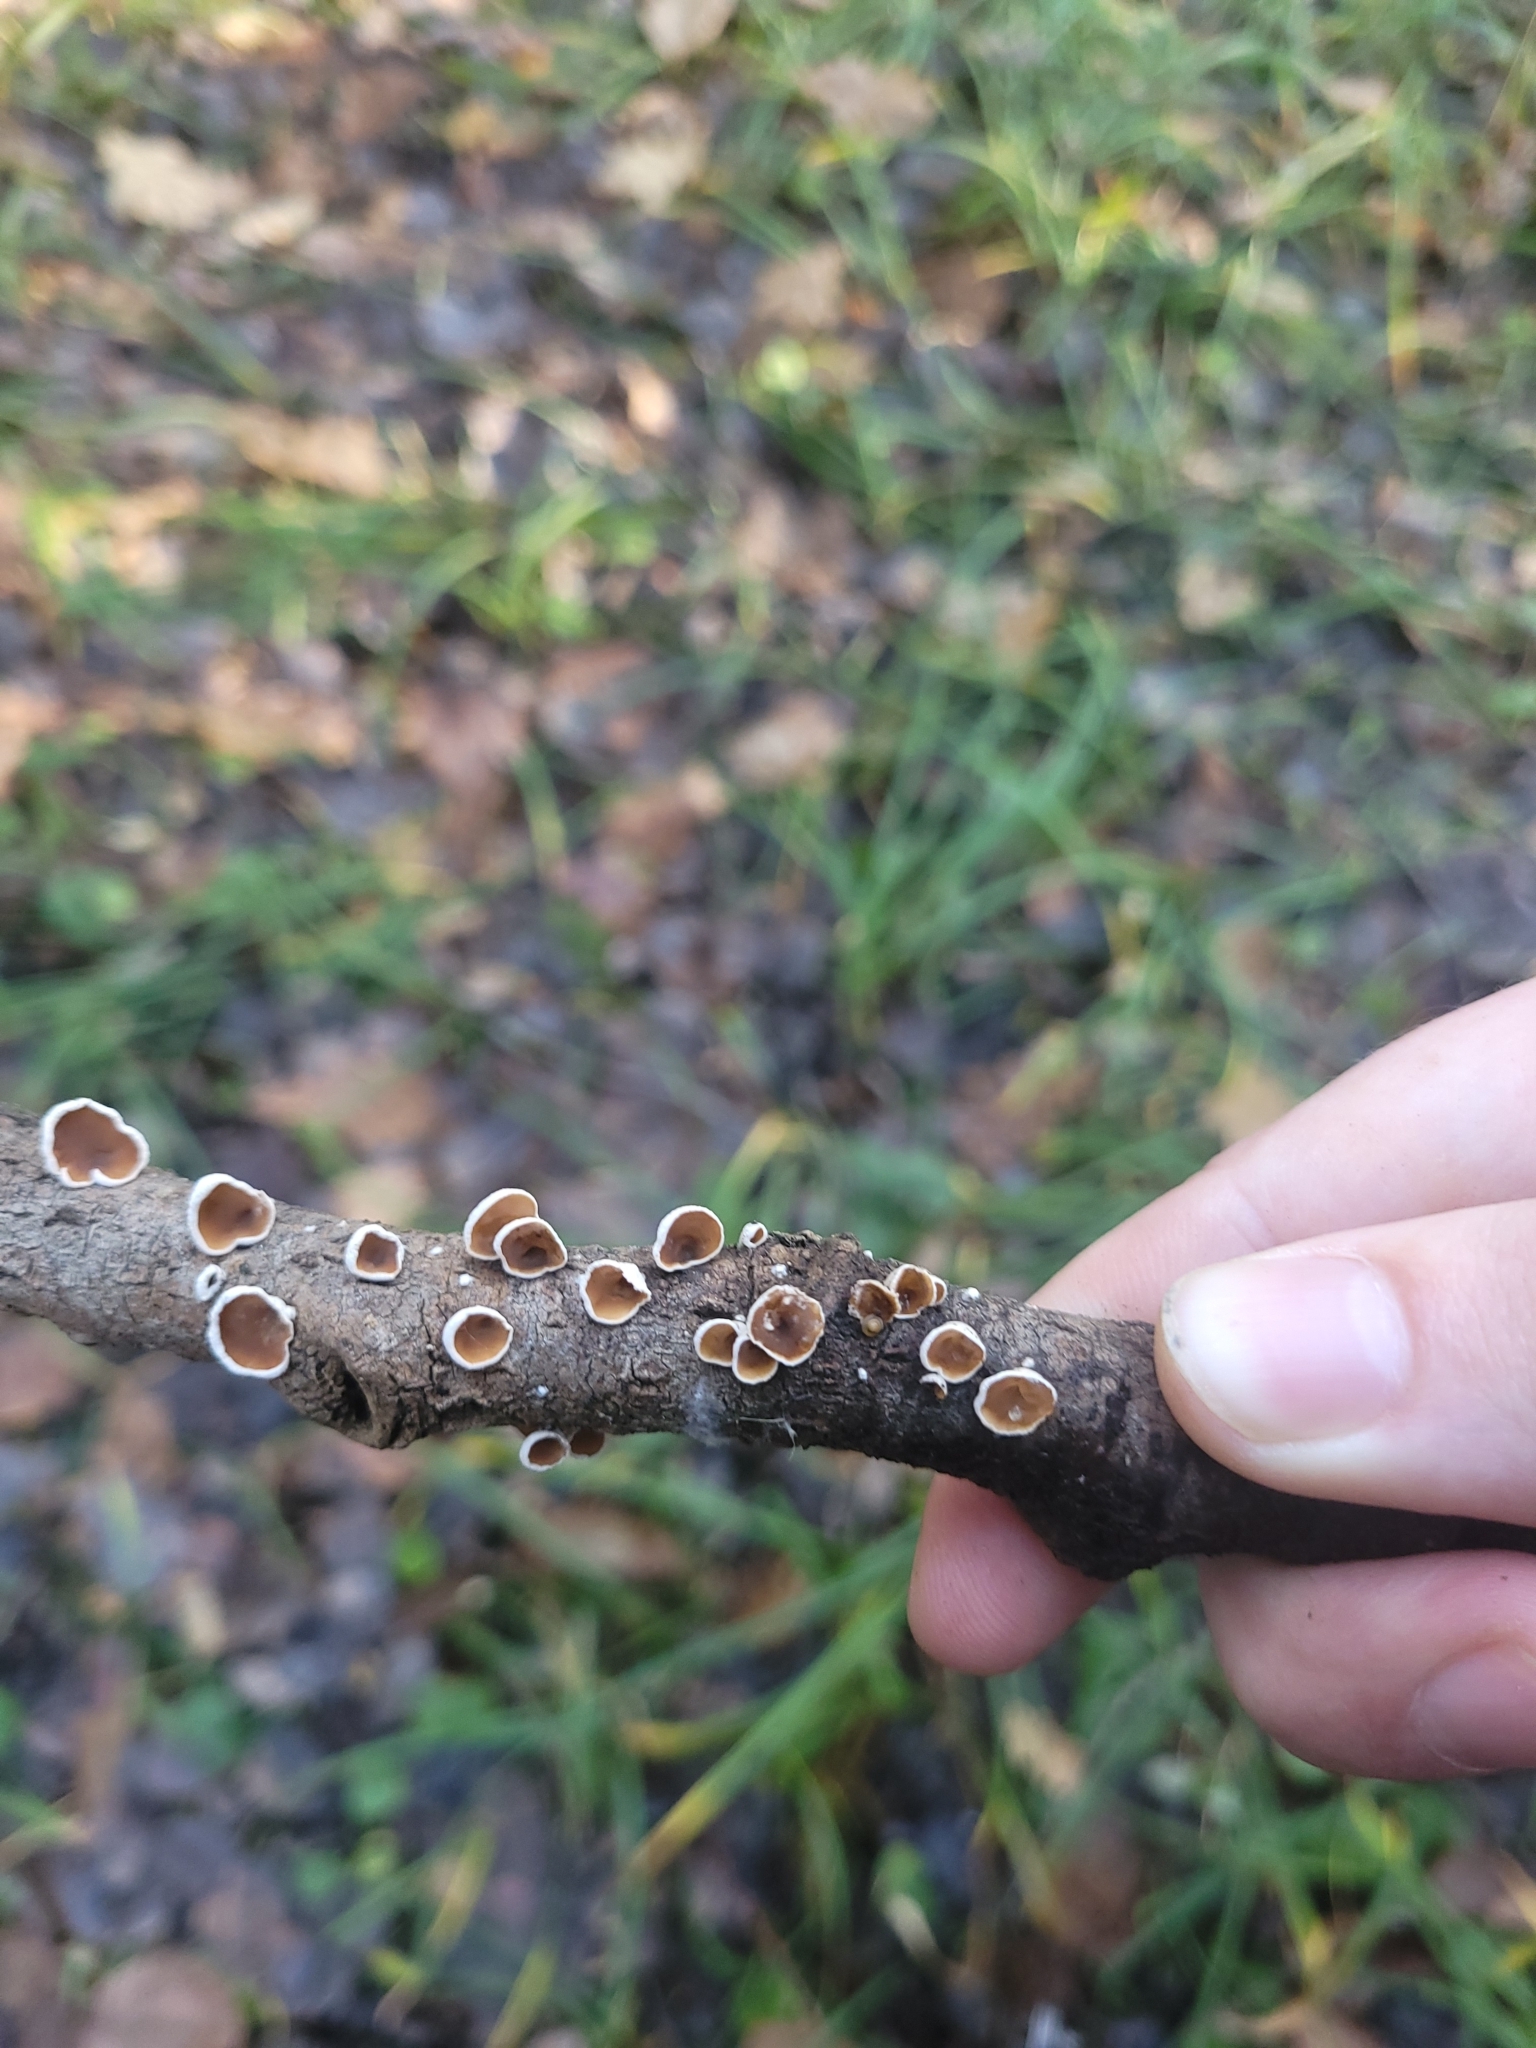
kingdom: Fungi
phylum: Basidiomycota
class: Agaricomycetes
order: Agaricales
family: Schizophyllaceae
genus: Schizophyllum
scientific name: Schizophyllum amplum
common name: Poplar bells
